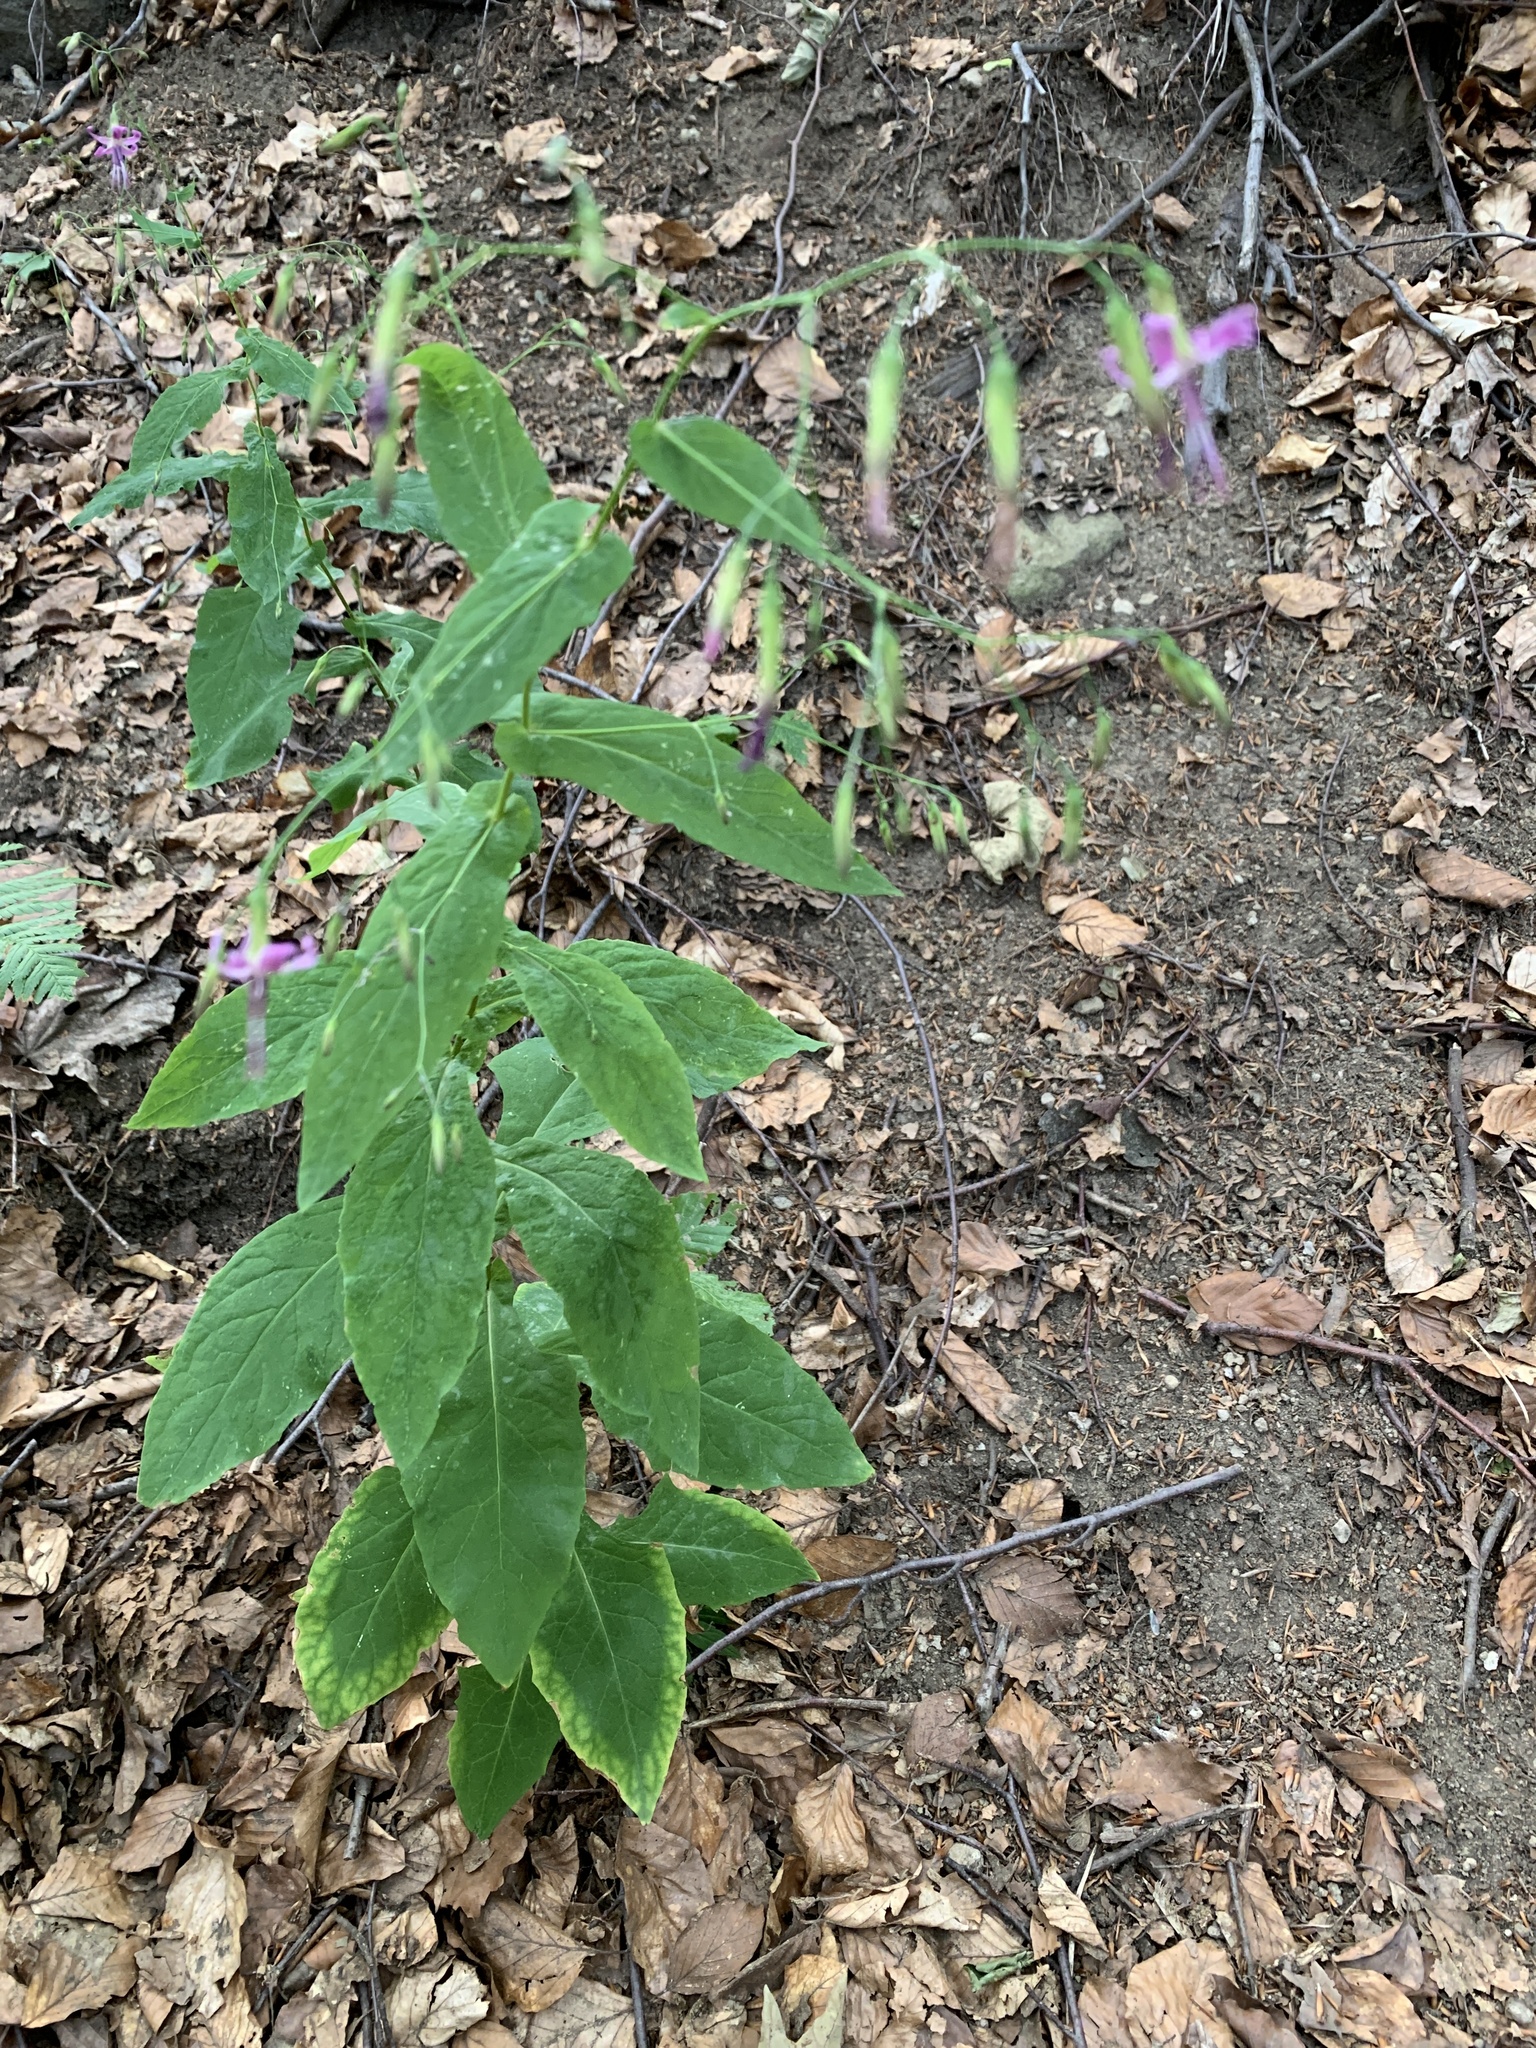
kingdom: Plantae
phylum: Tracheophyta
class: Magnoliopsida
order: Asterales
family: Asteraceae
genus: Prenanthes
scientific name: Prenanthes purpurea
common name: Purple lettuce
